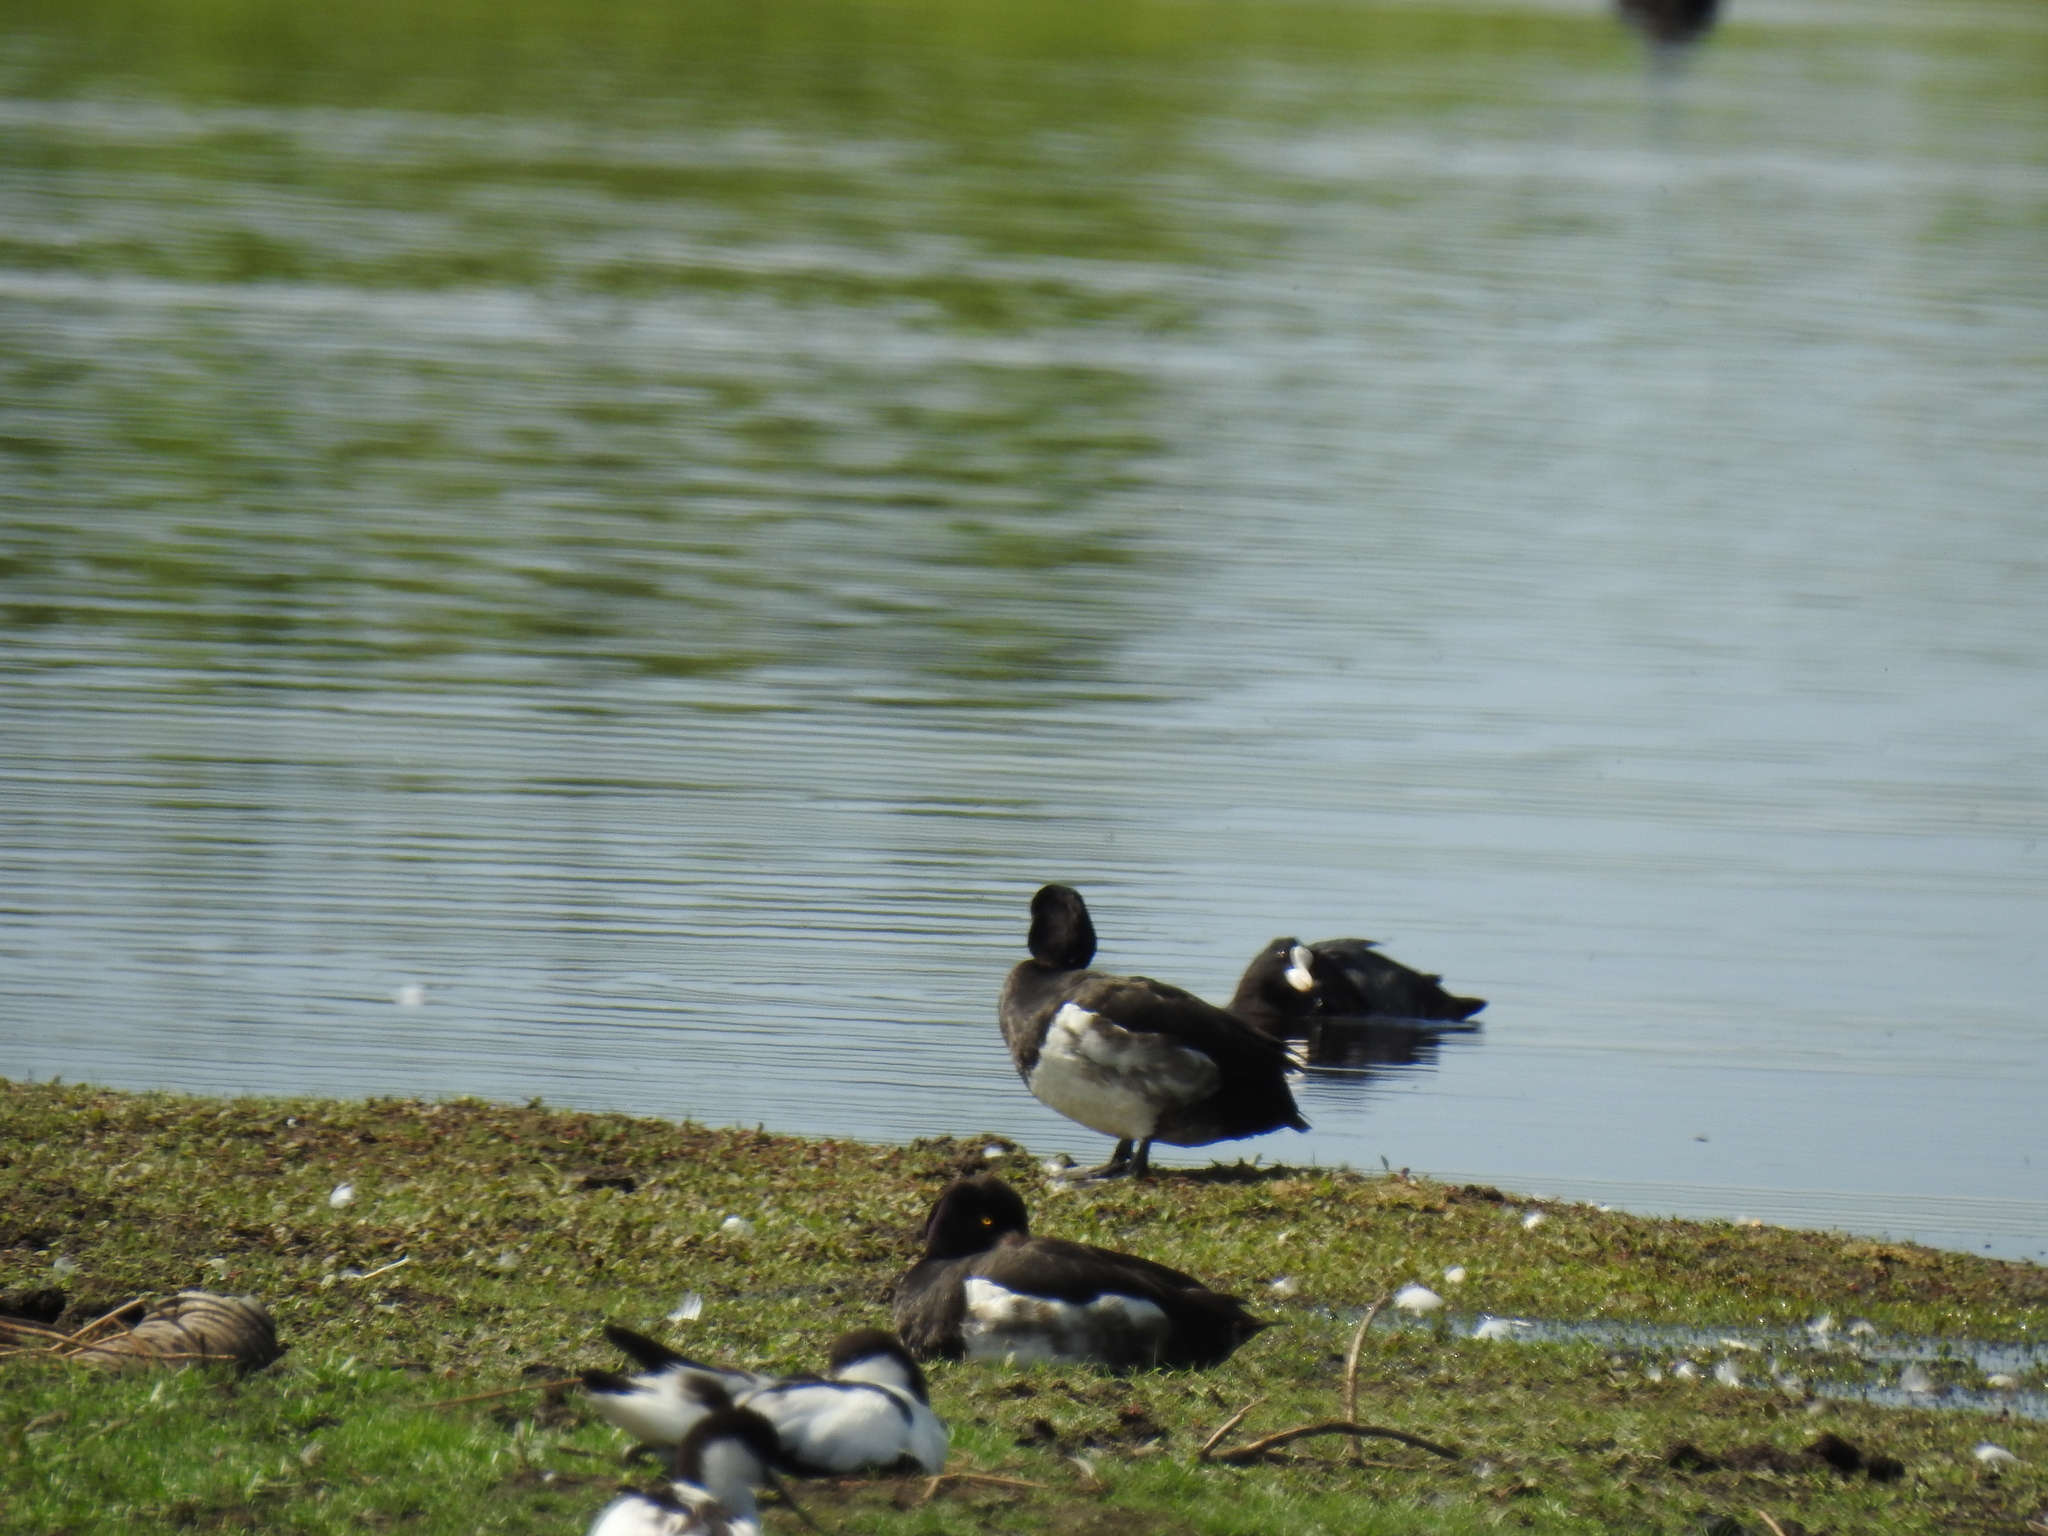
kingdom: Animalia
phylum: Chordata
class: Aves
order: Anseriformes
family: Anatidae
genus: Aythya
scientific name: Aythya fuligula
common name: Tufted duck
